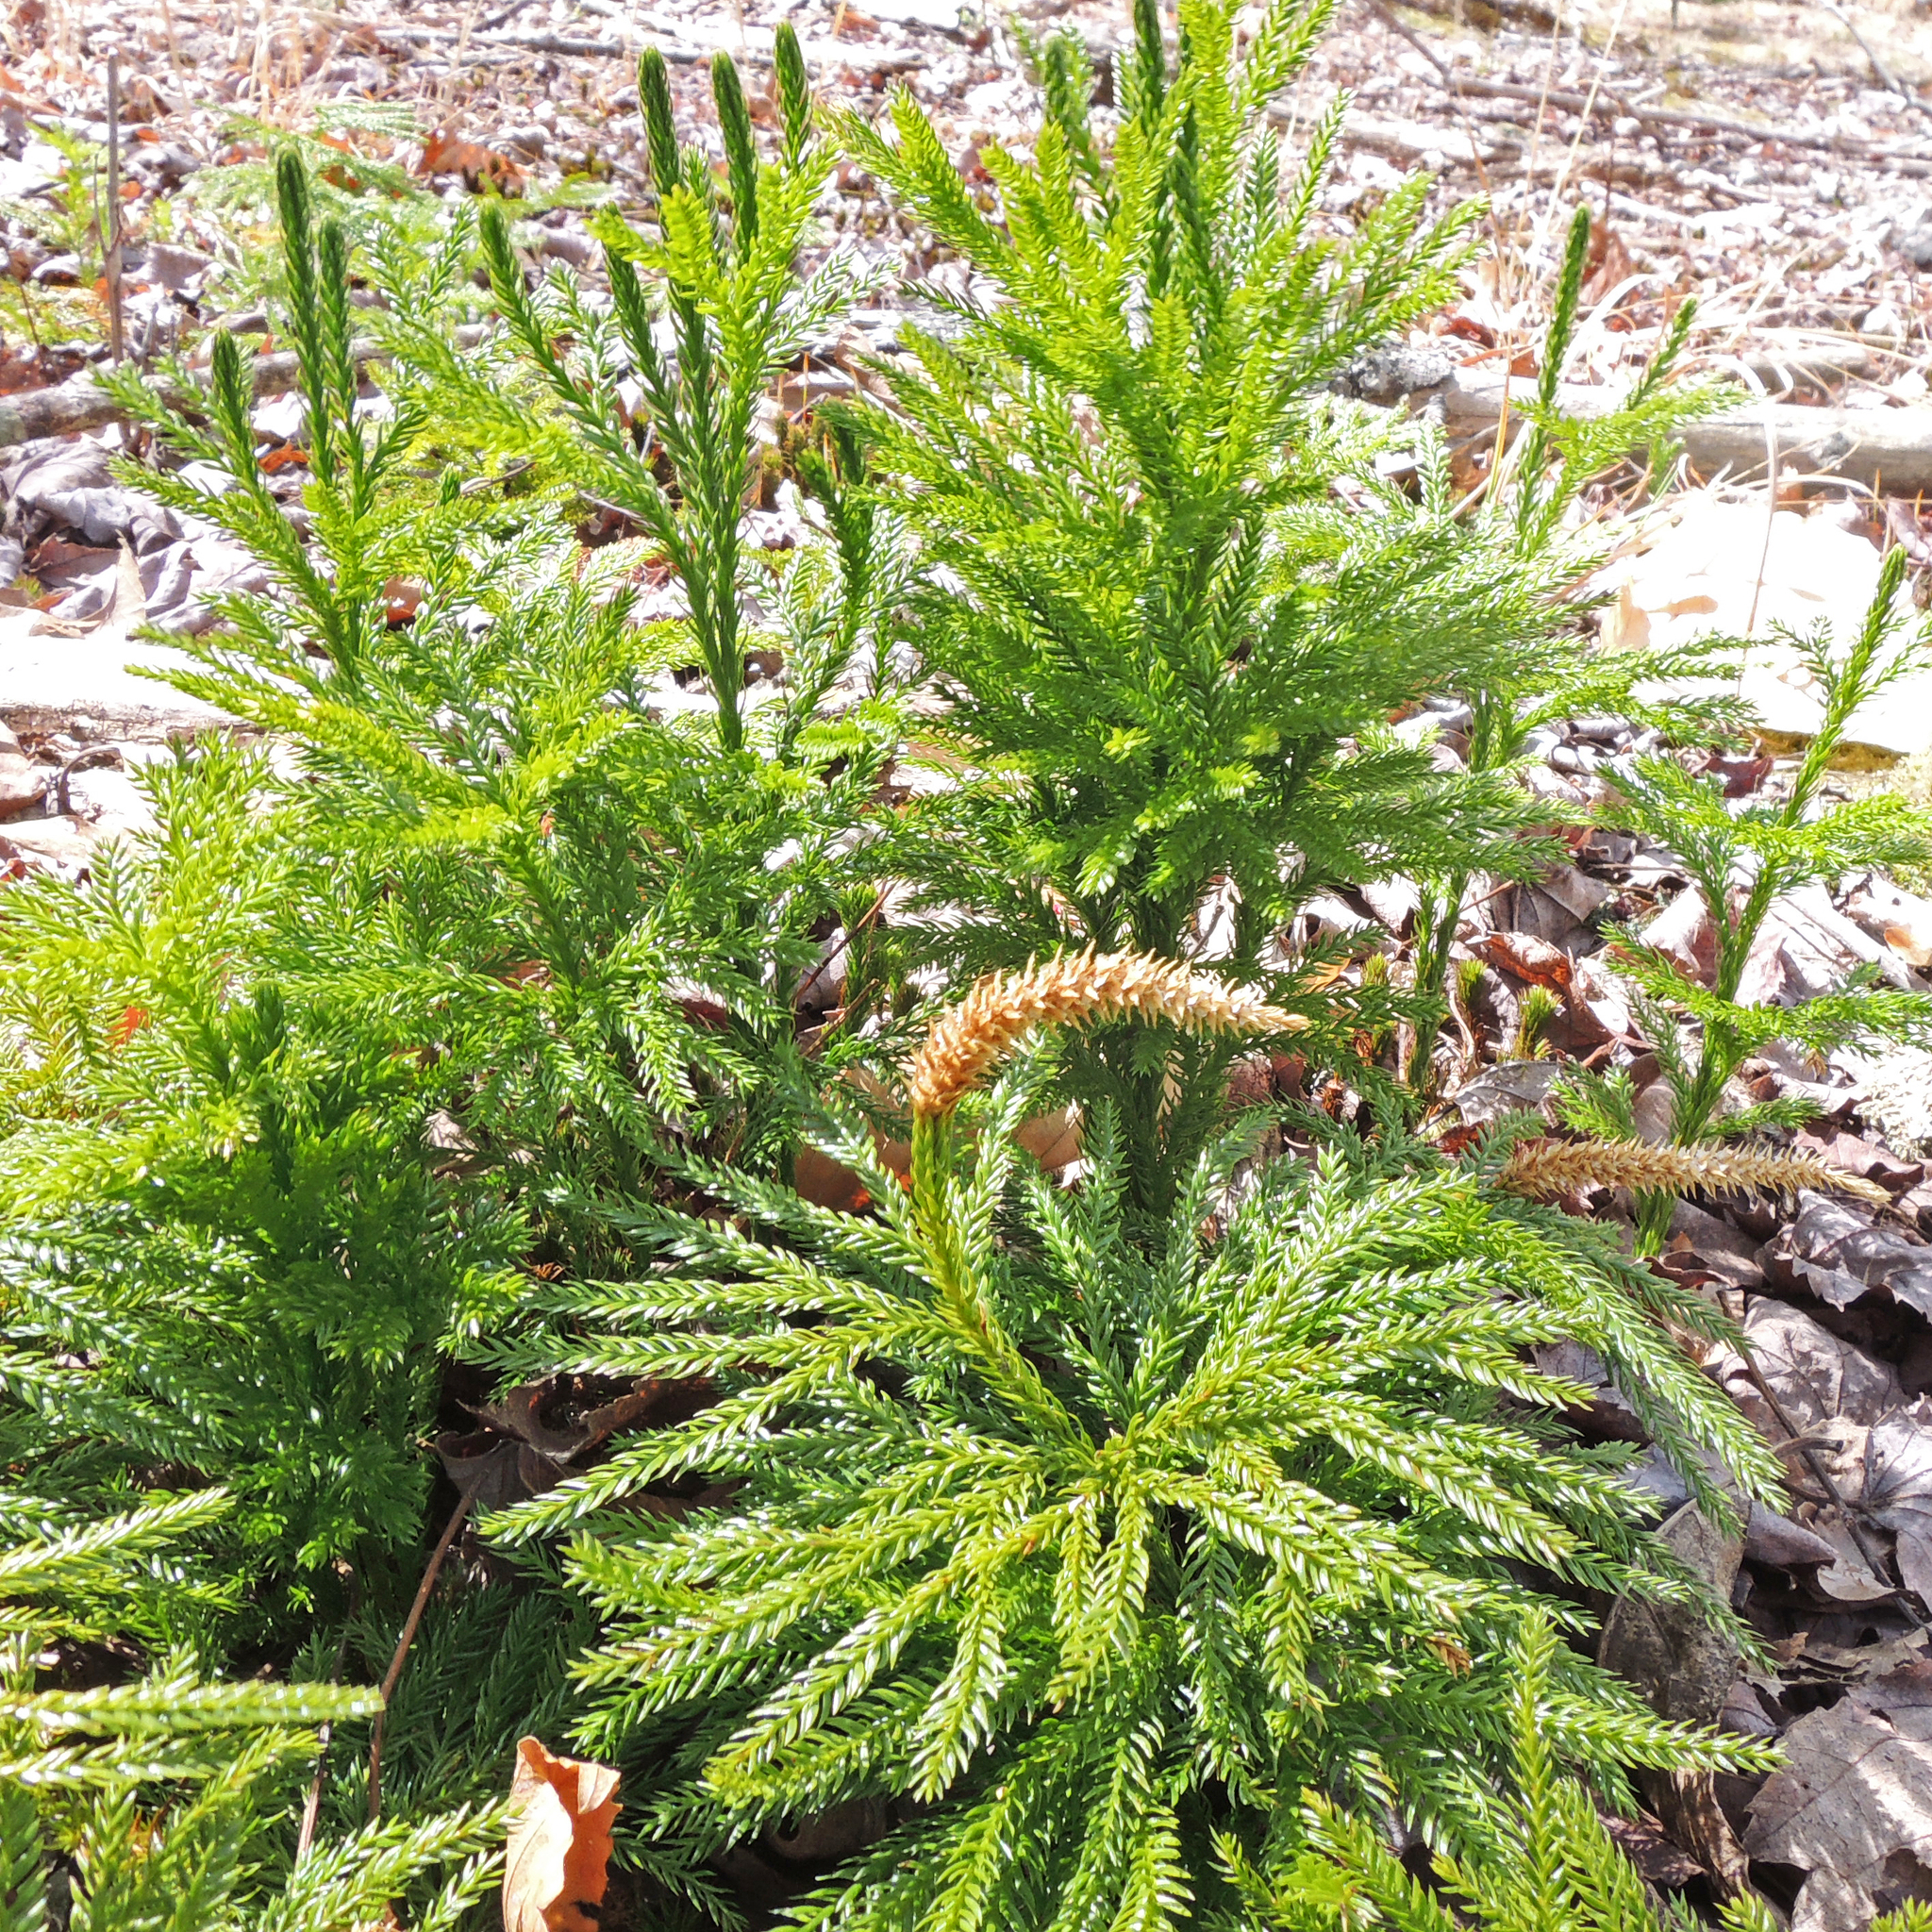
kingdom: Plantae
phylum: Tracheophyta
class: Lycopodiopsida
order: Lycopodiales
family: Lycopodiaceae
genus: Dendrolycopodium
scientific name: Dendrolycopodium obscurum
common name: Common ground-pine
